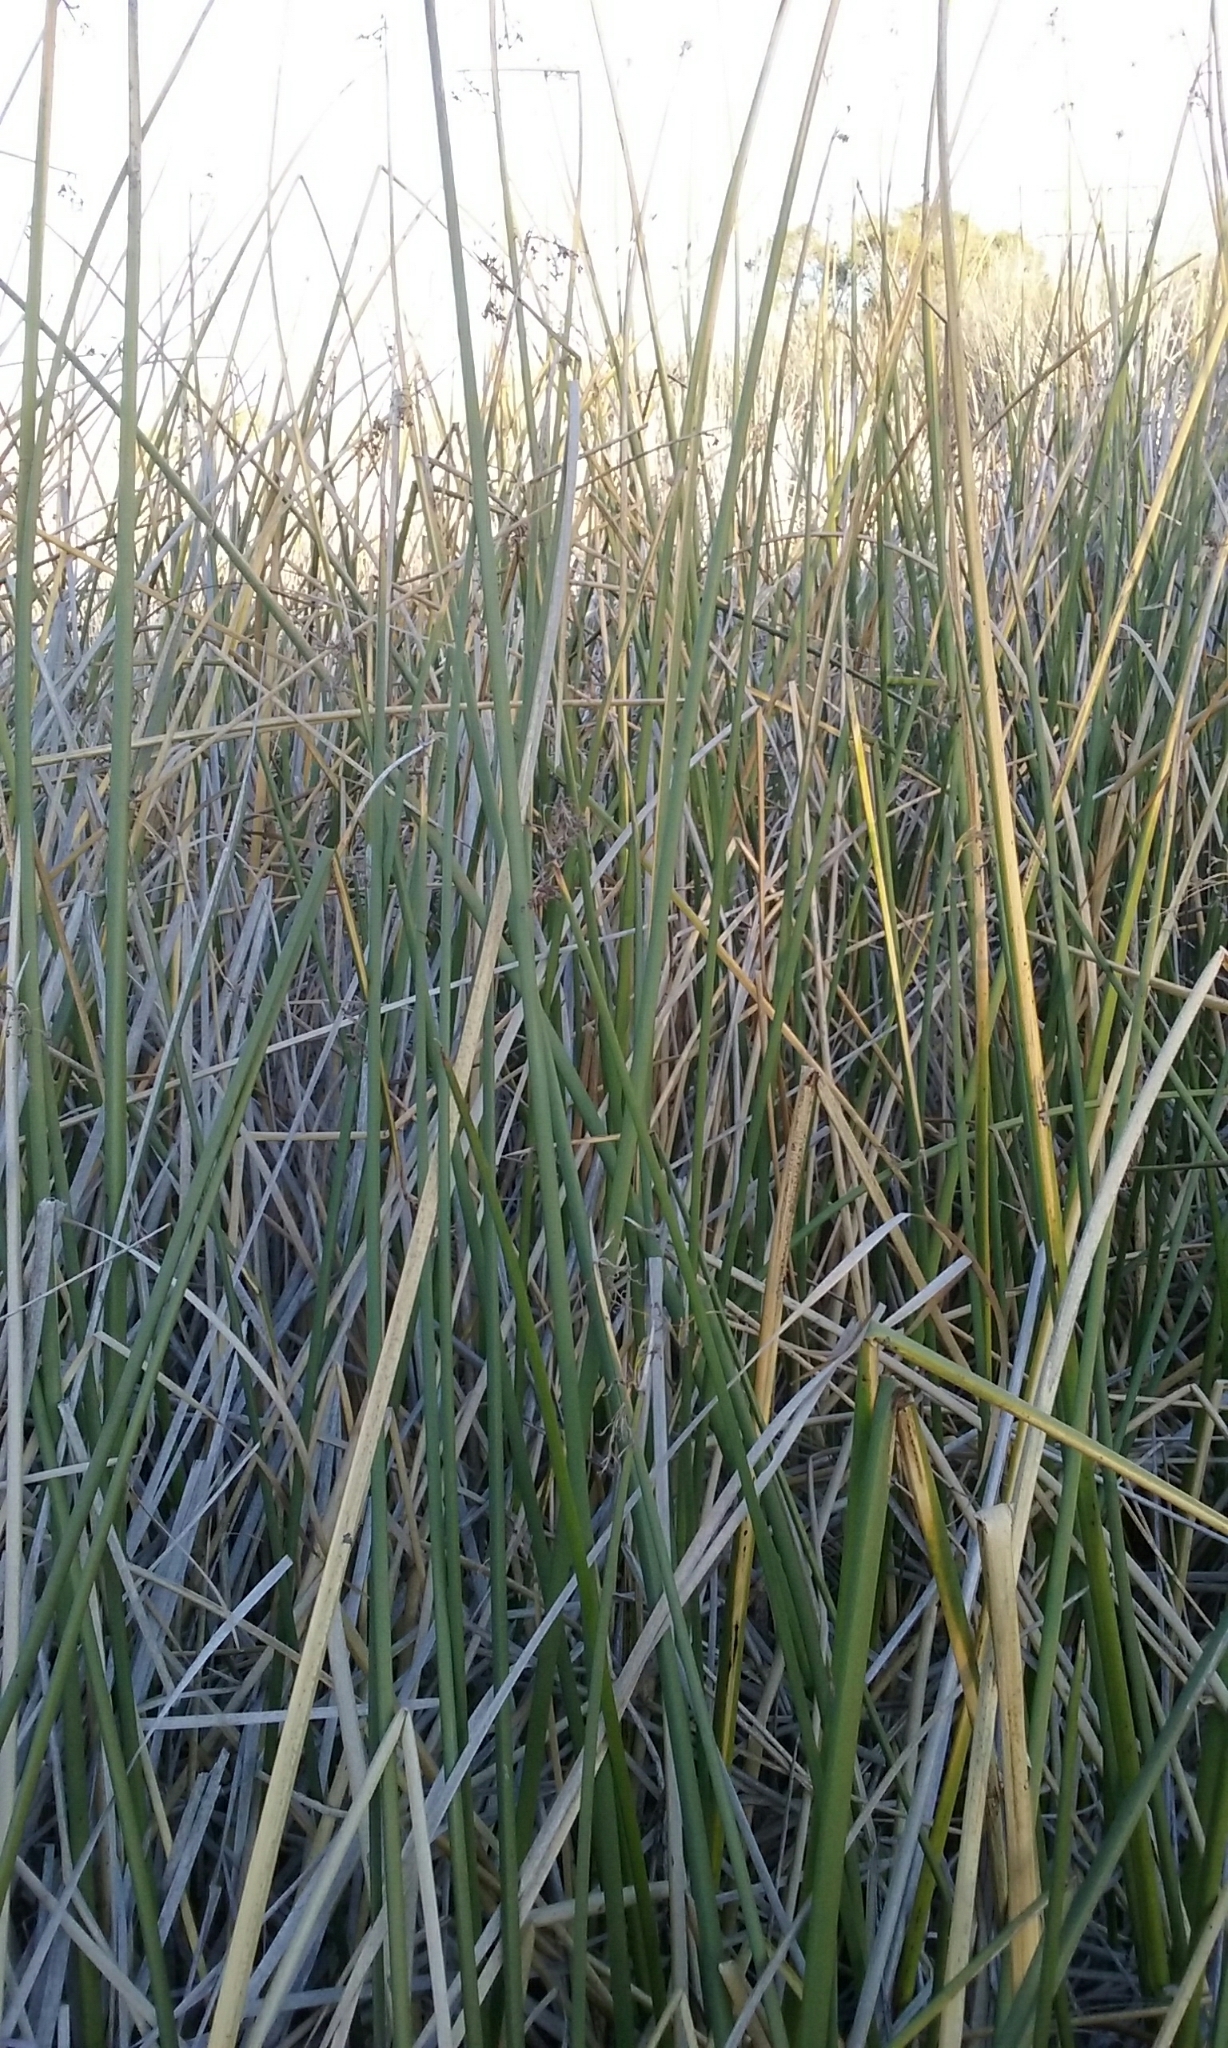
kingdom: Plantae
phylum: Tracheophyta
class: Liliopsida
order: Poales
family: Cyperaceae
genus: Schoenoplectus
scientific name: Schoenoplectus californicus
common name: California bulrush
